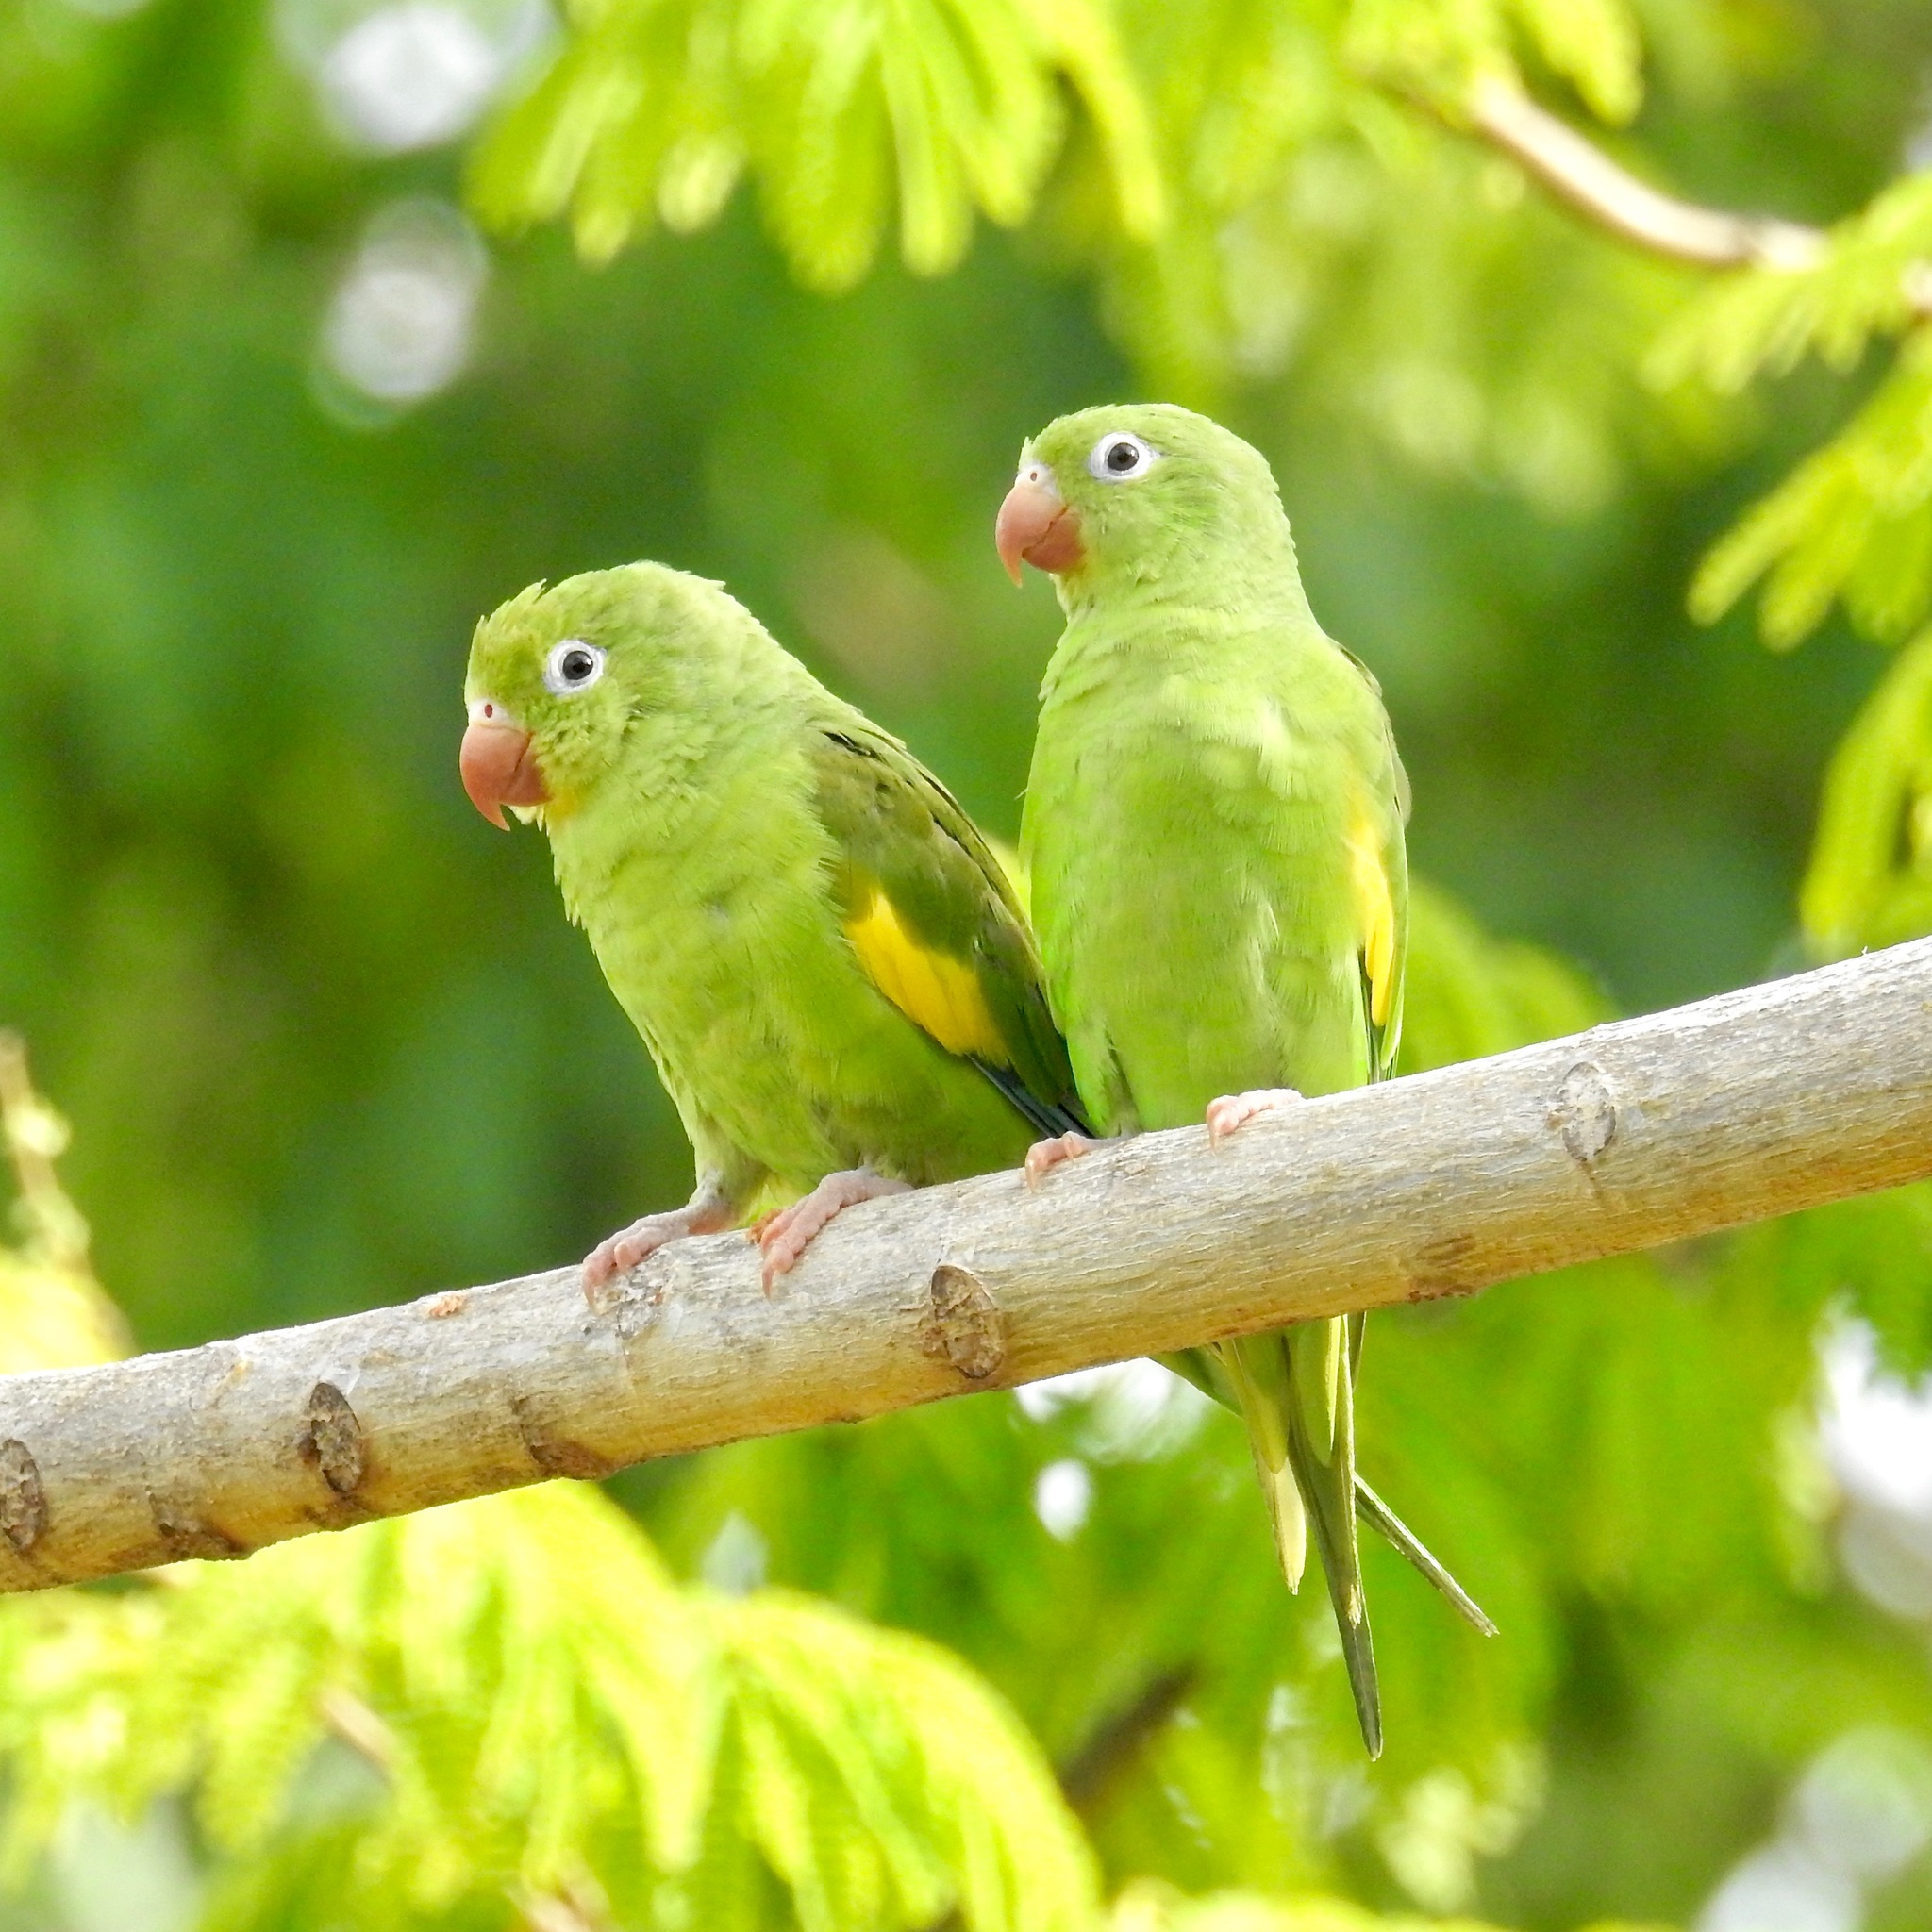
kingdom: Animalia
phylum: Chordata
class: Aves
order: Psittaciformes
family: Psittacidae
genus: Brotogeris
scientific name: Brotogeris chiriri
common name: Yellow-chevroned parakeet
